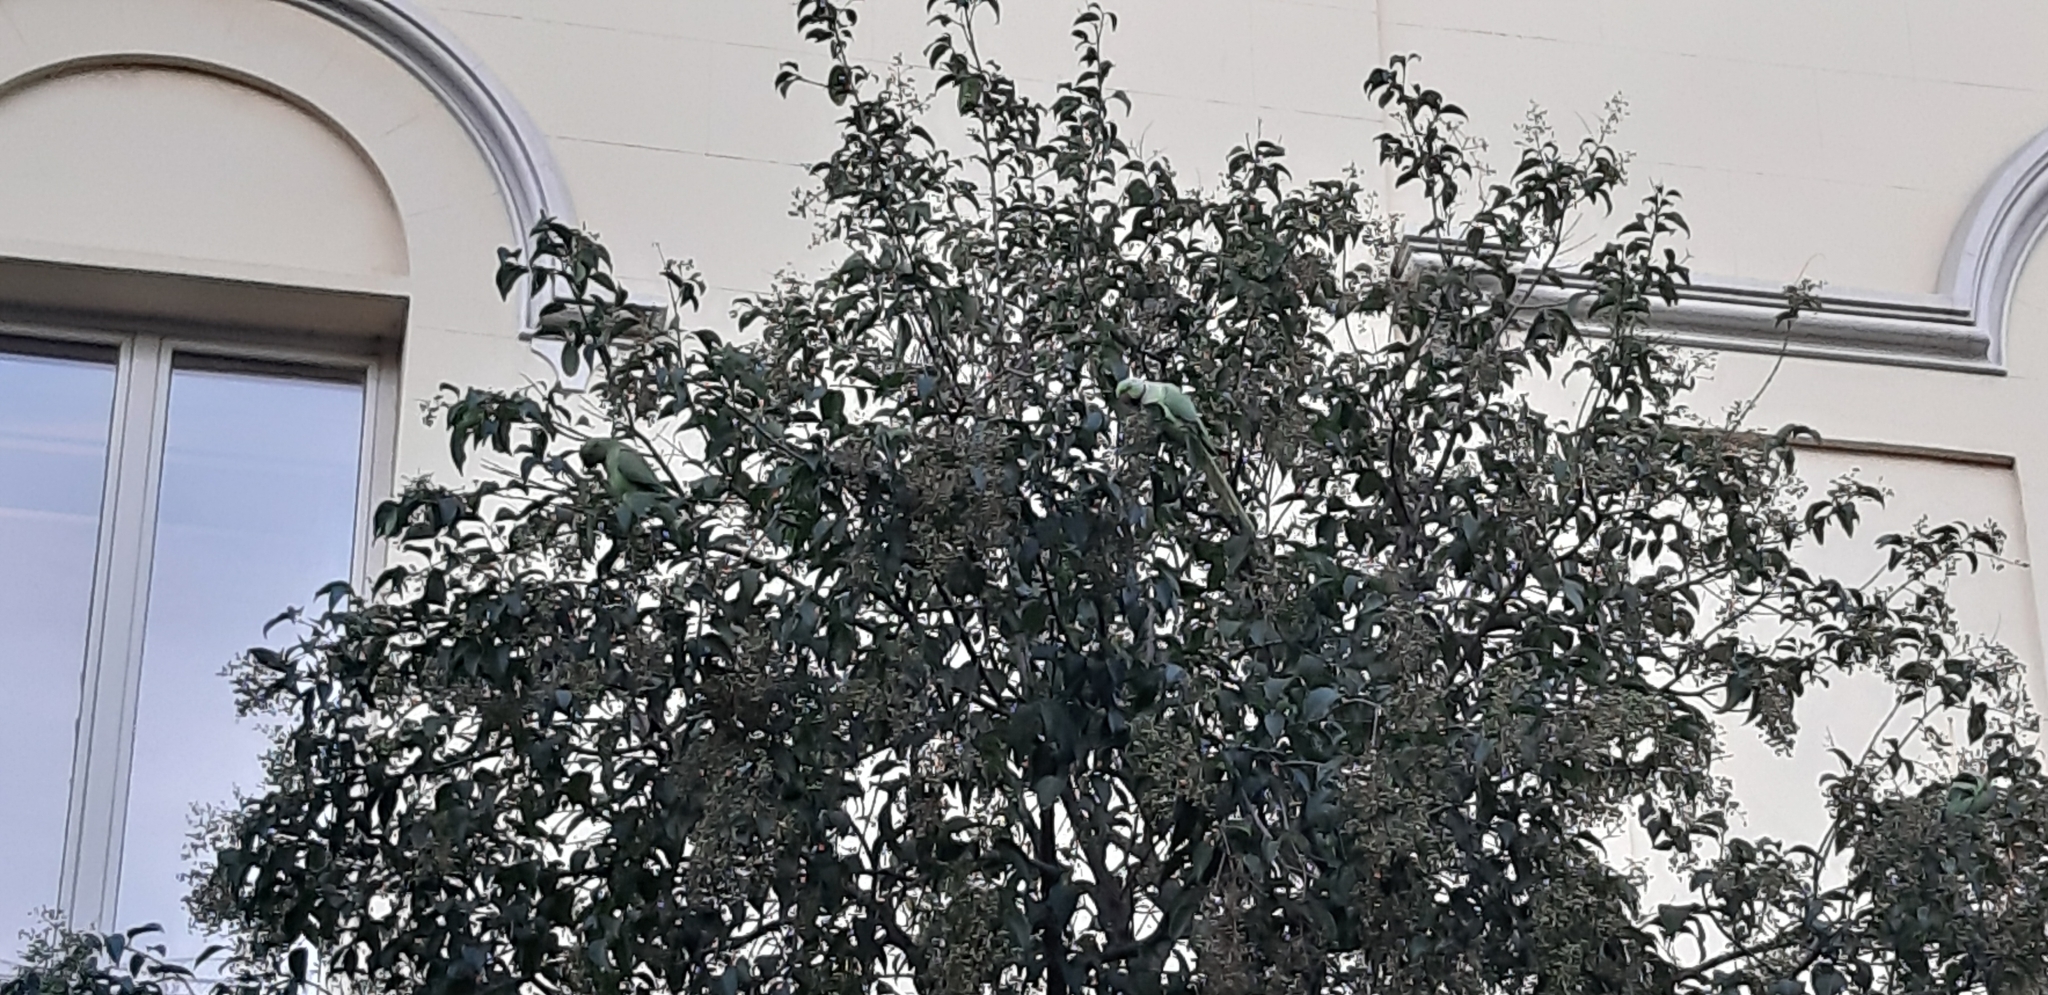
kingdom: Animalia
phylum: Chordata
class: Aves
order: Psittaciformes
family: Psittacidae
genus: Psittacula
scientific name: Psittacula krameri
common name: Rose-ringed parakeet
